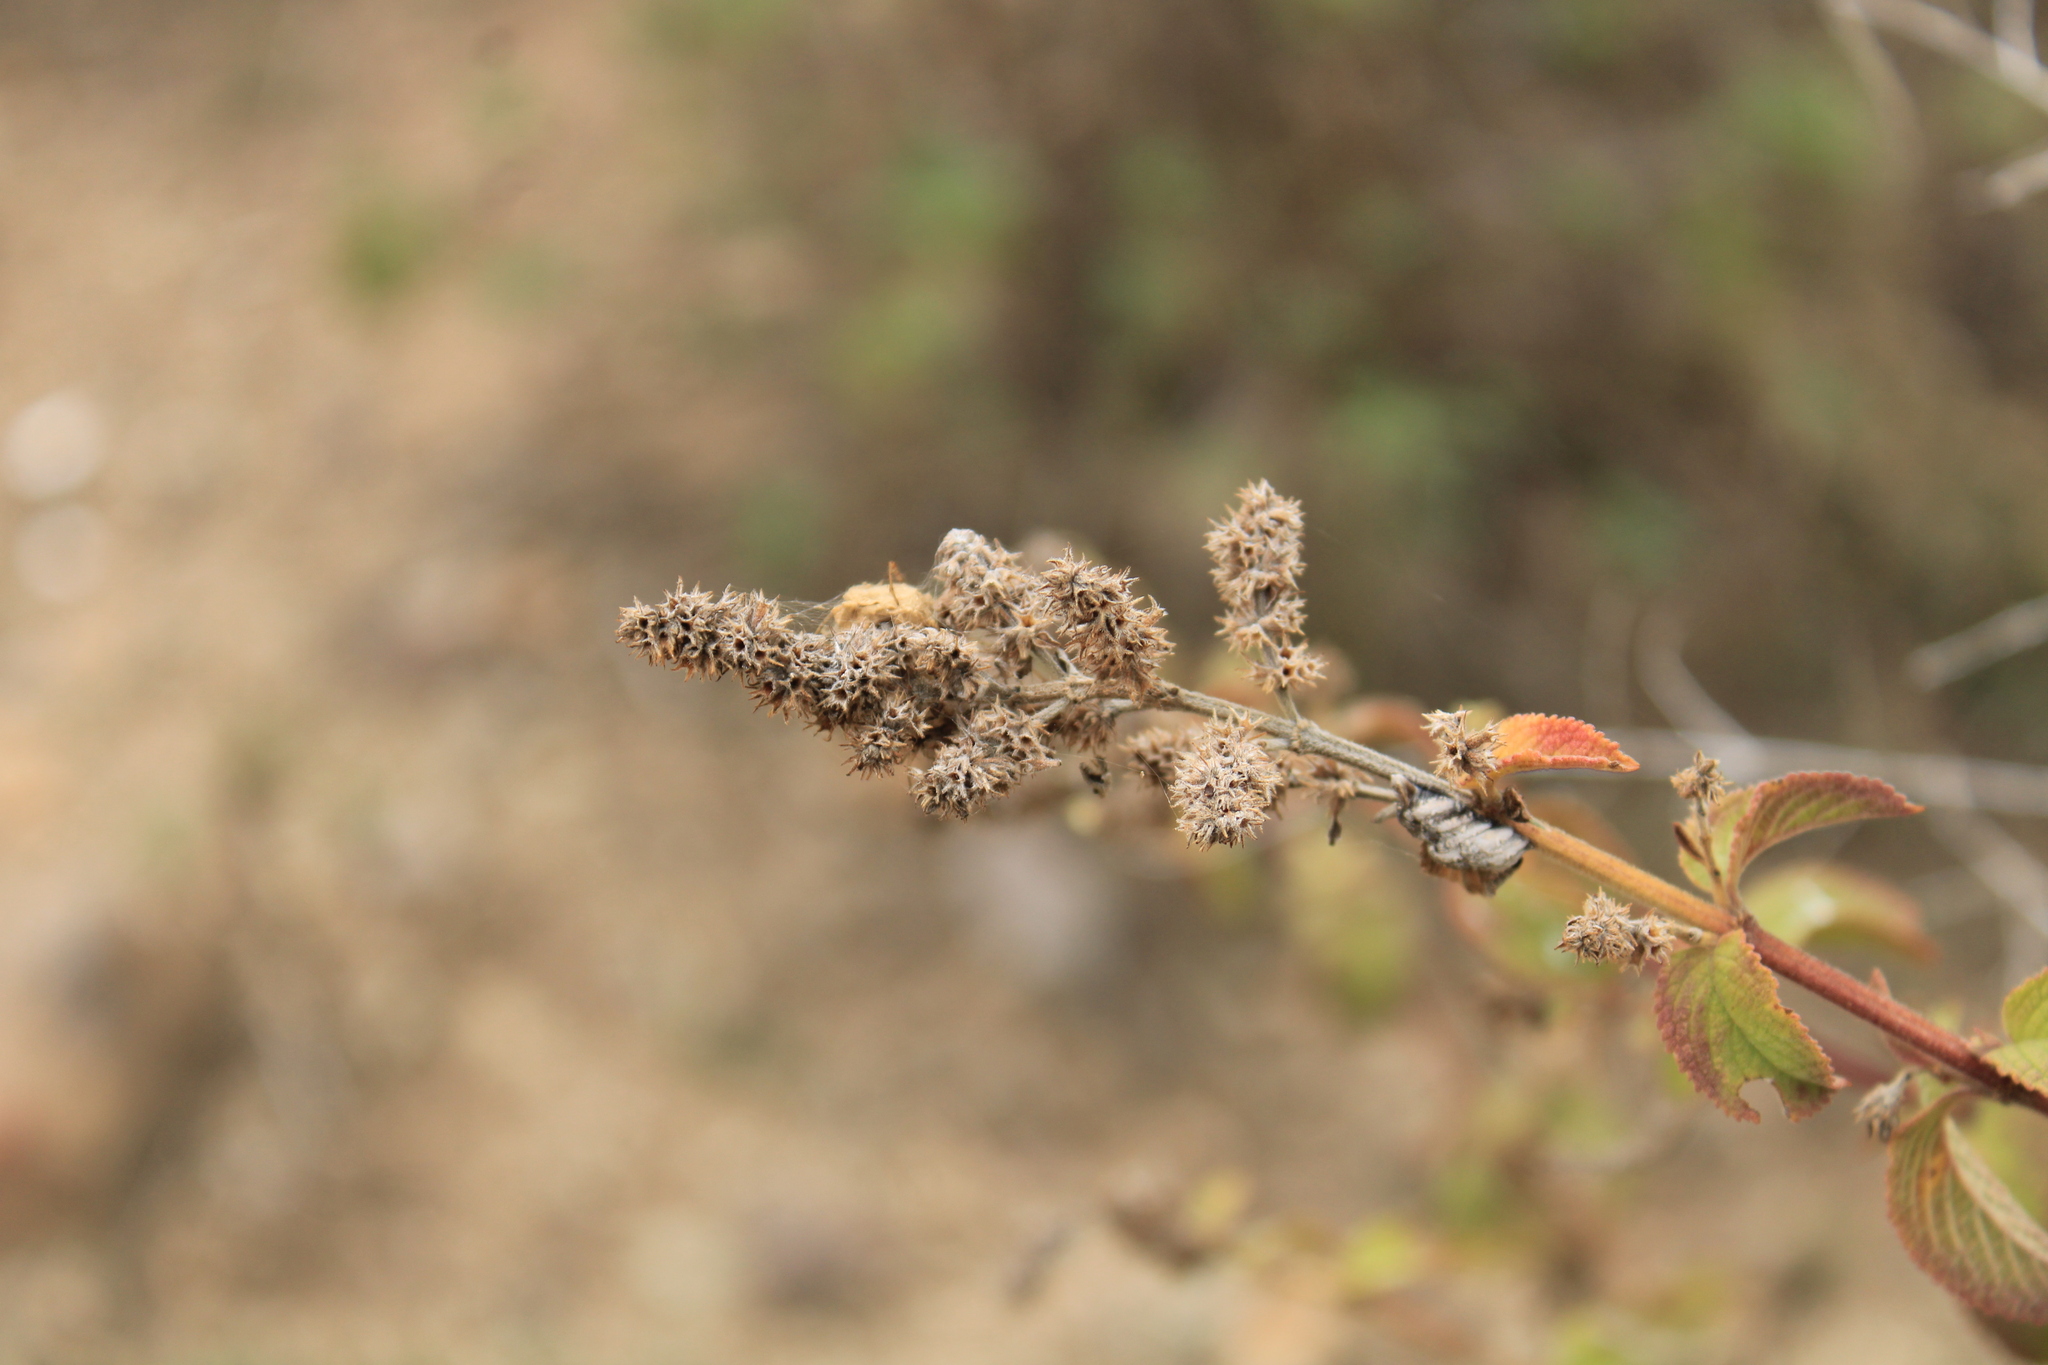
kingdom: Plantae
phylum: Tracheophyta
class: Magnoliopsida
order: Lamiales
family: Lamiaceae
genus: Asterohyptis
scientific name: Asterohyptis stellulata
